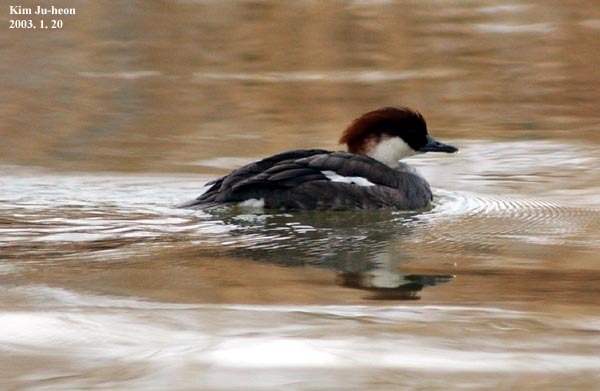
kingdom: Animalia
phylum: Chordata
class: Aves
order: Anseriformes
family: Anatidae
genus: Mergellus
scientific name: Mergellus albellus
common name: Smew
